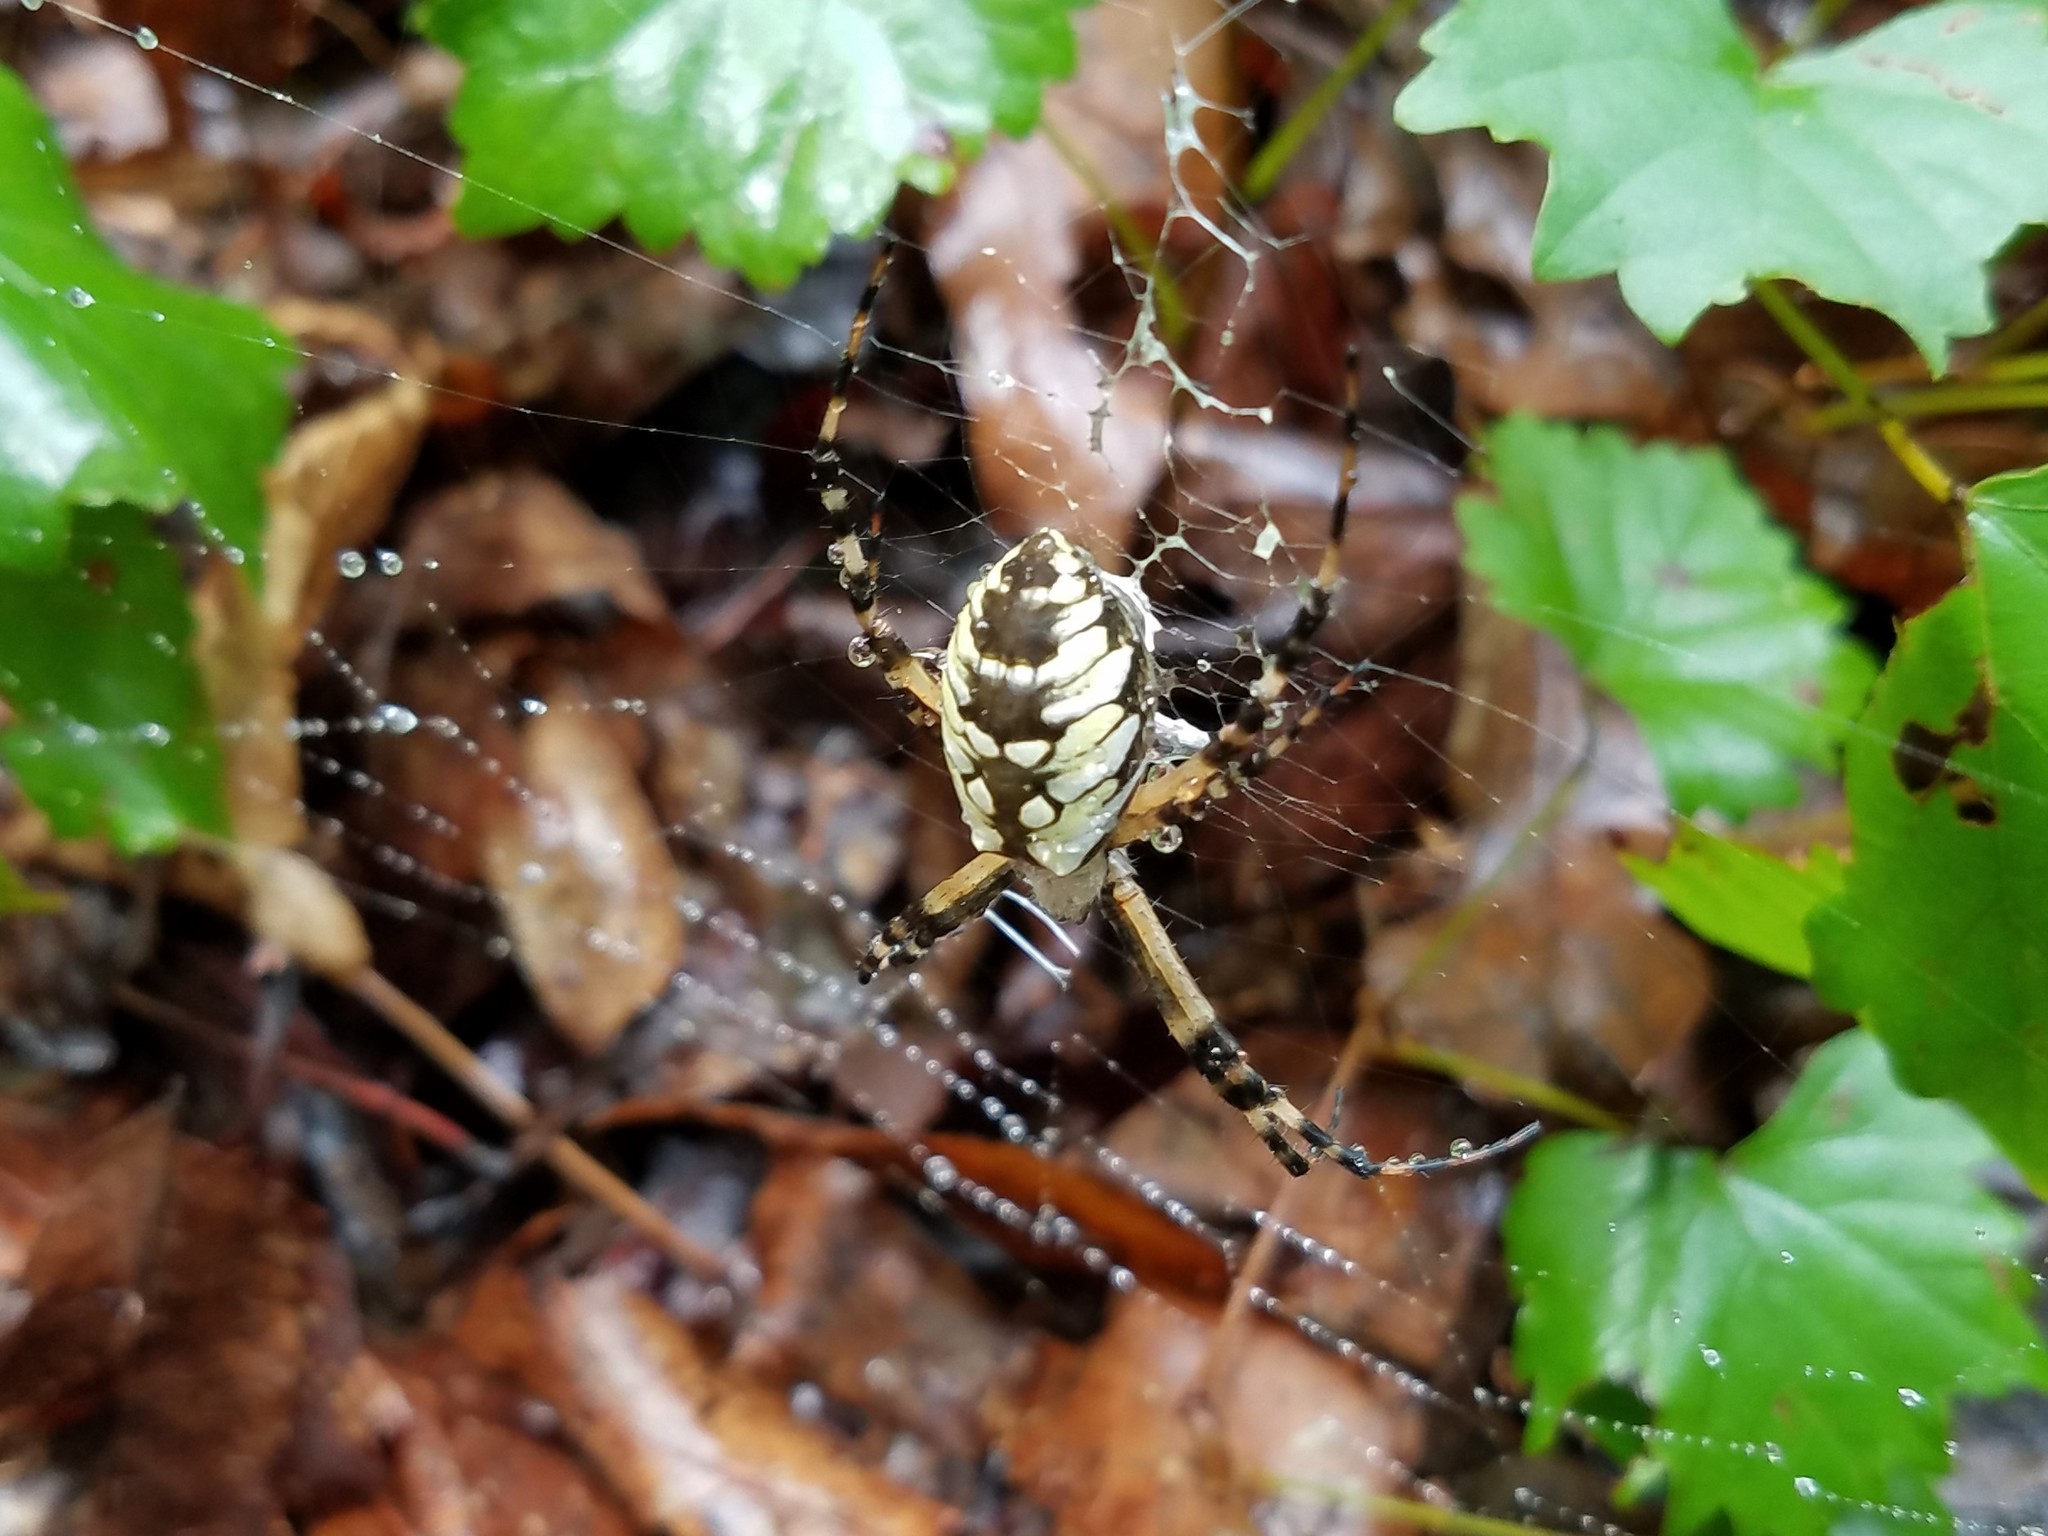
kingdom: Animalia
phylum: Arthropoda
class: Arachnida
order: Araneae
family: Araneidae
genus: Argiope
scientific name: Argiope aurantia
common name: Orb weavers
